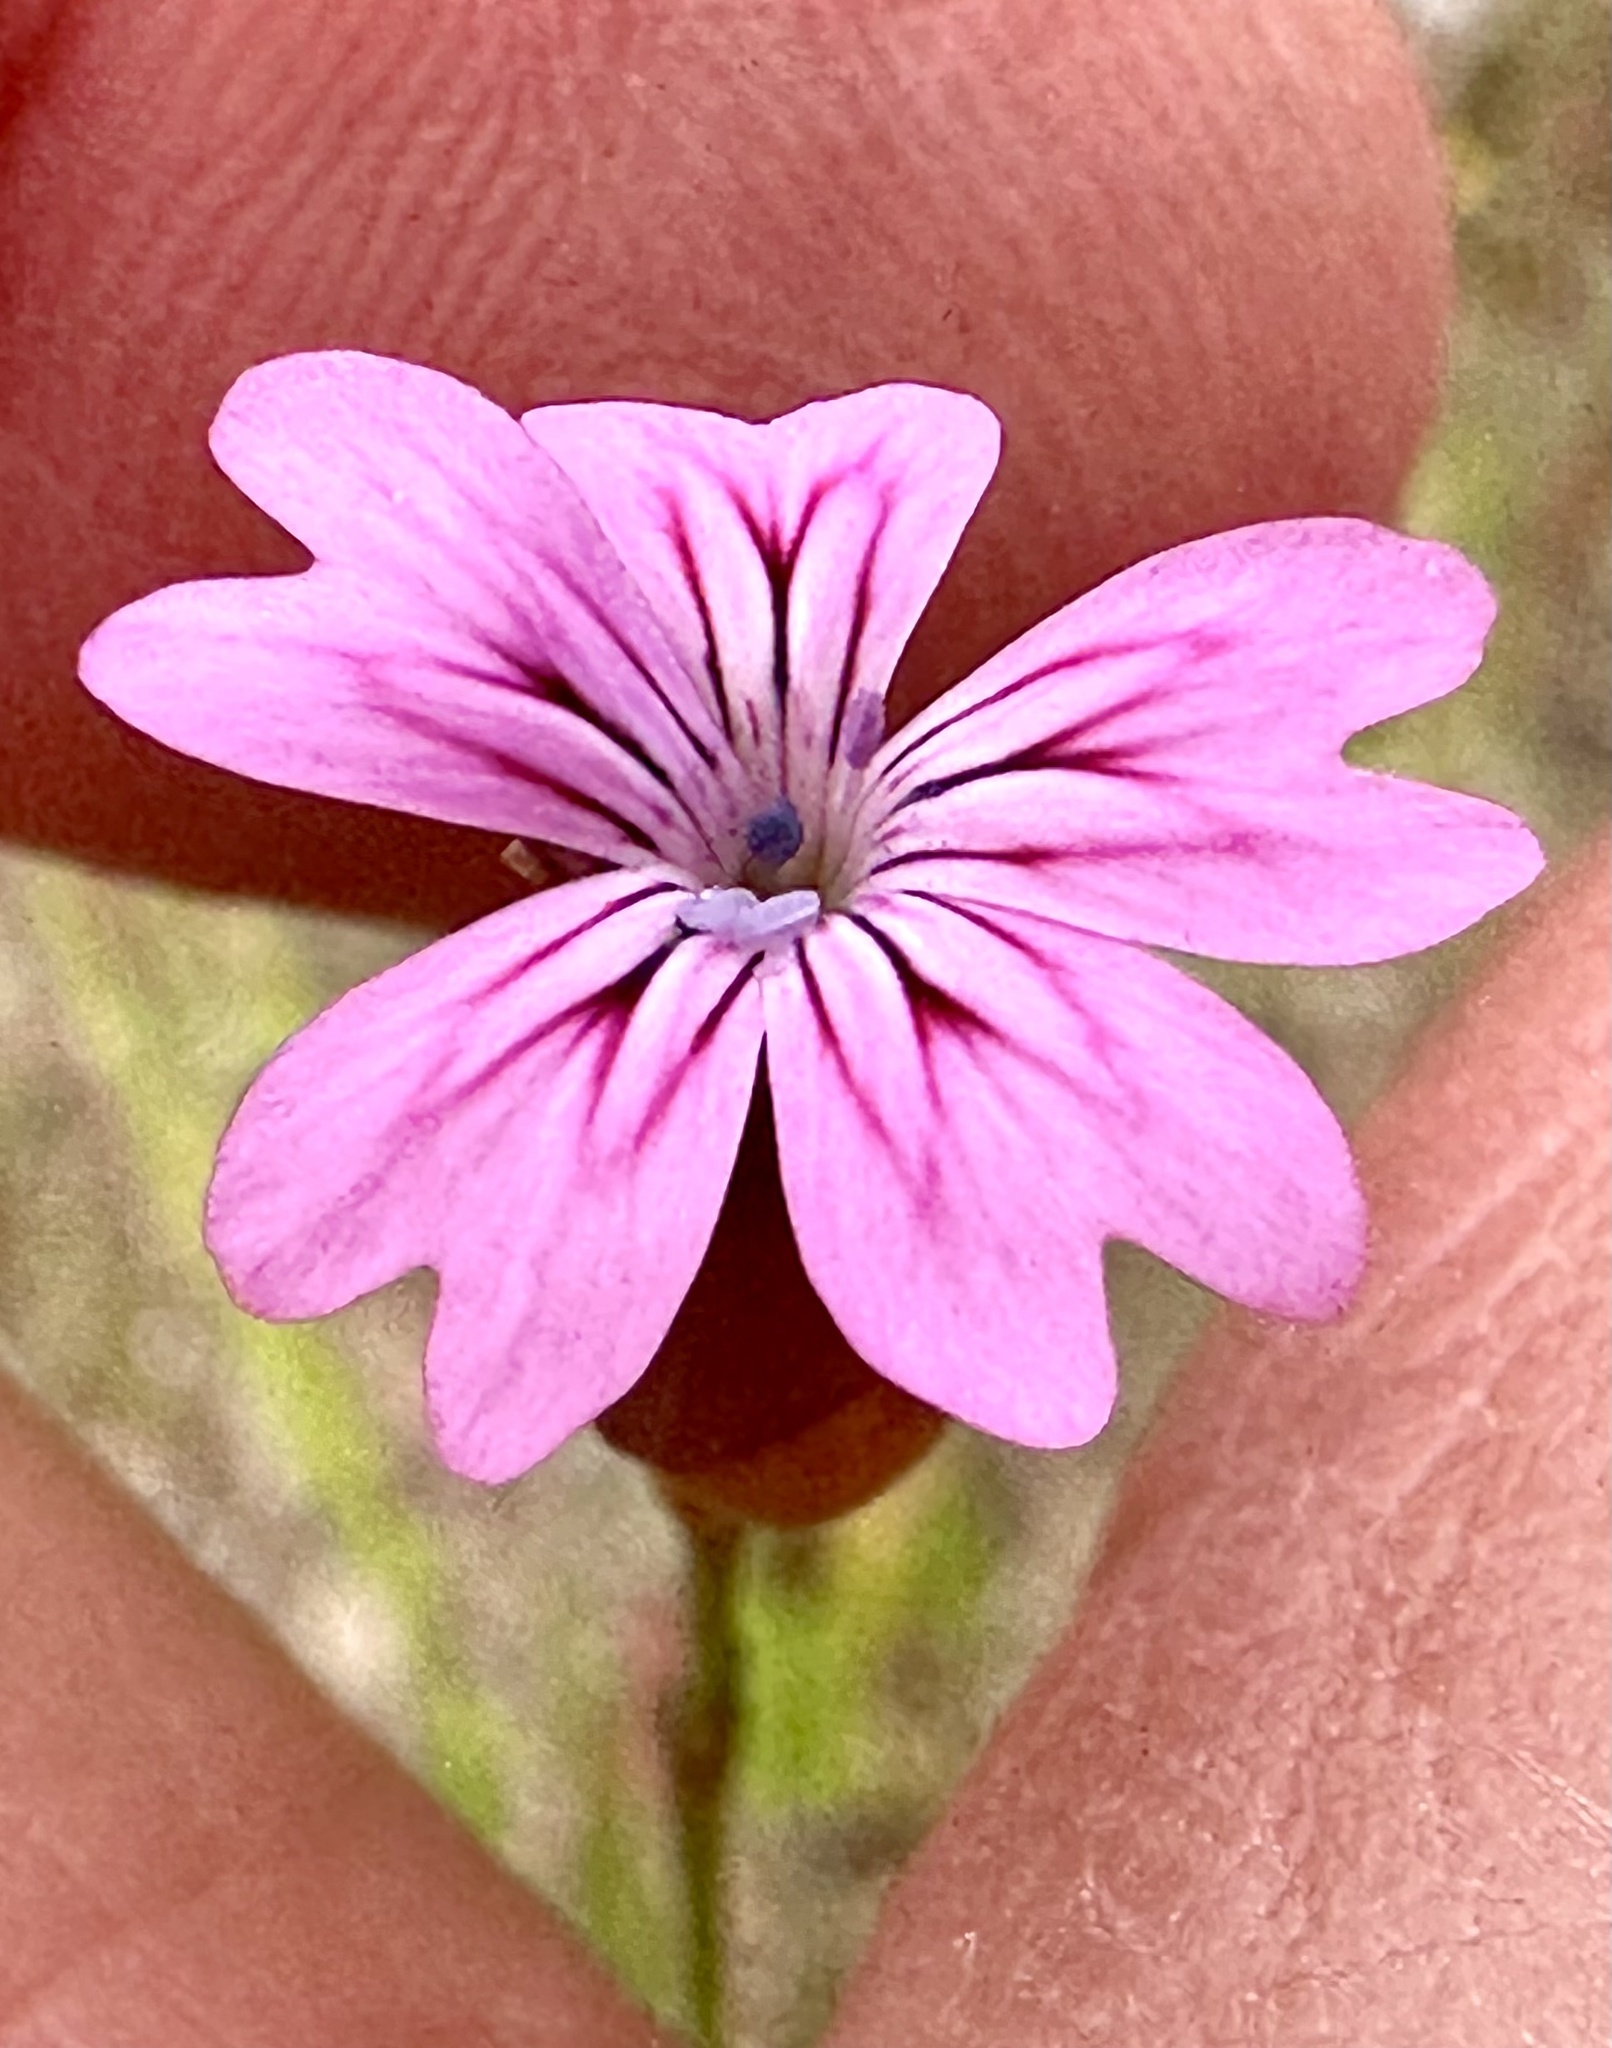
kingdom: Plantae
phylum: Tracheophyta
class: Magnoliopsida
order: Caryophyllales
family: Caryophyllaceae
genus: Petrorhagia
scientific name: Petrorhagia dubia
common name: Hairypink
